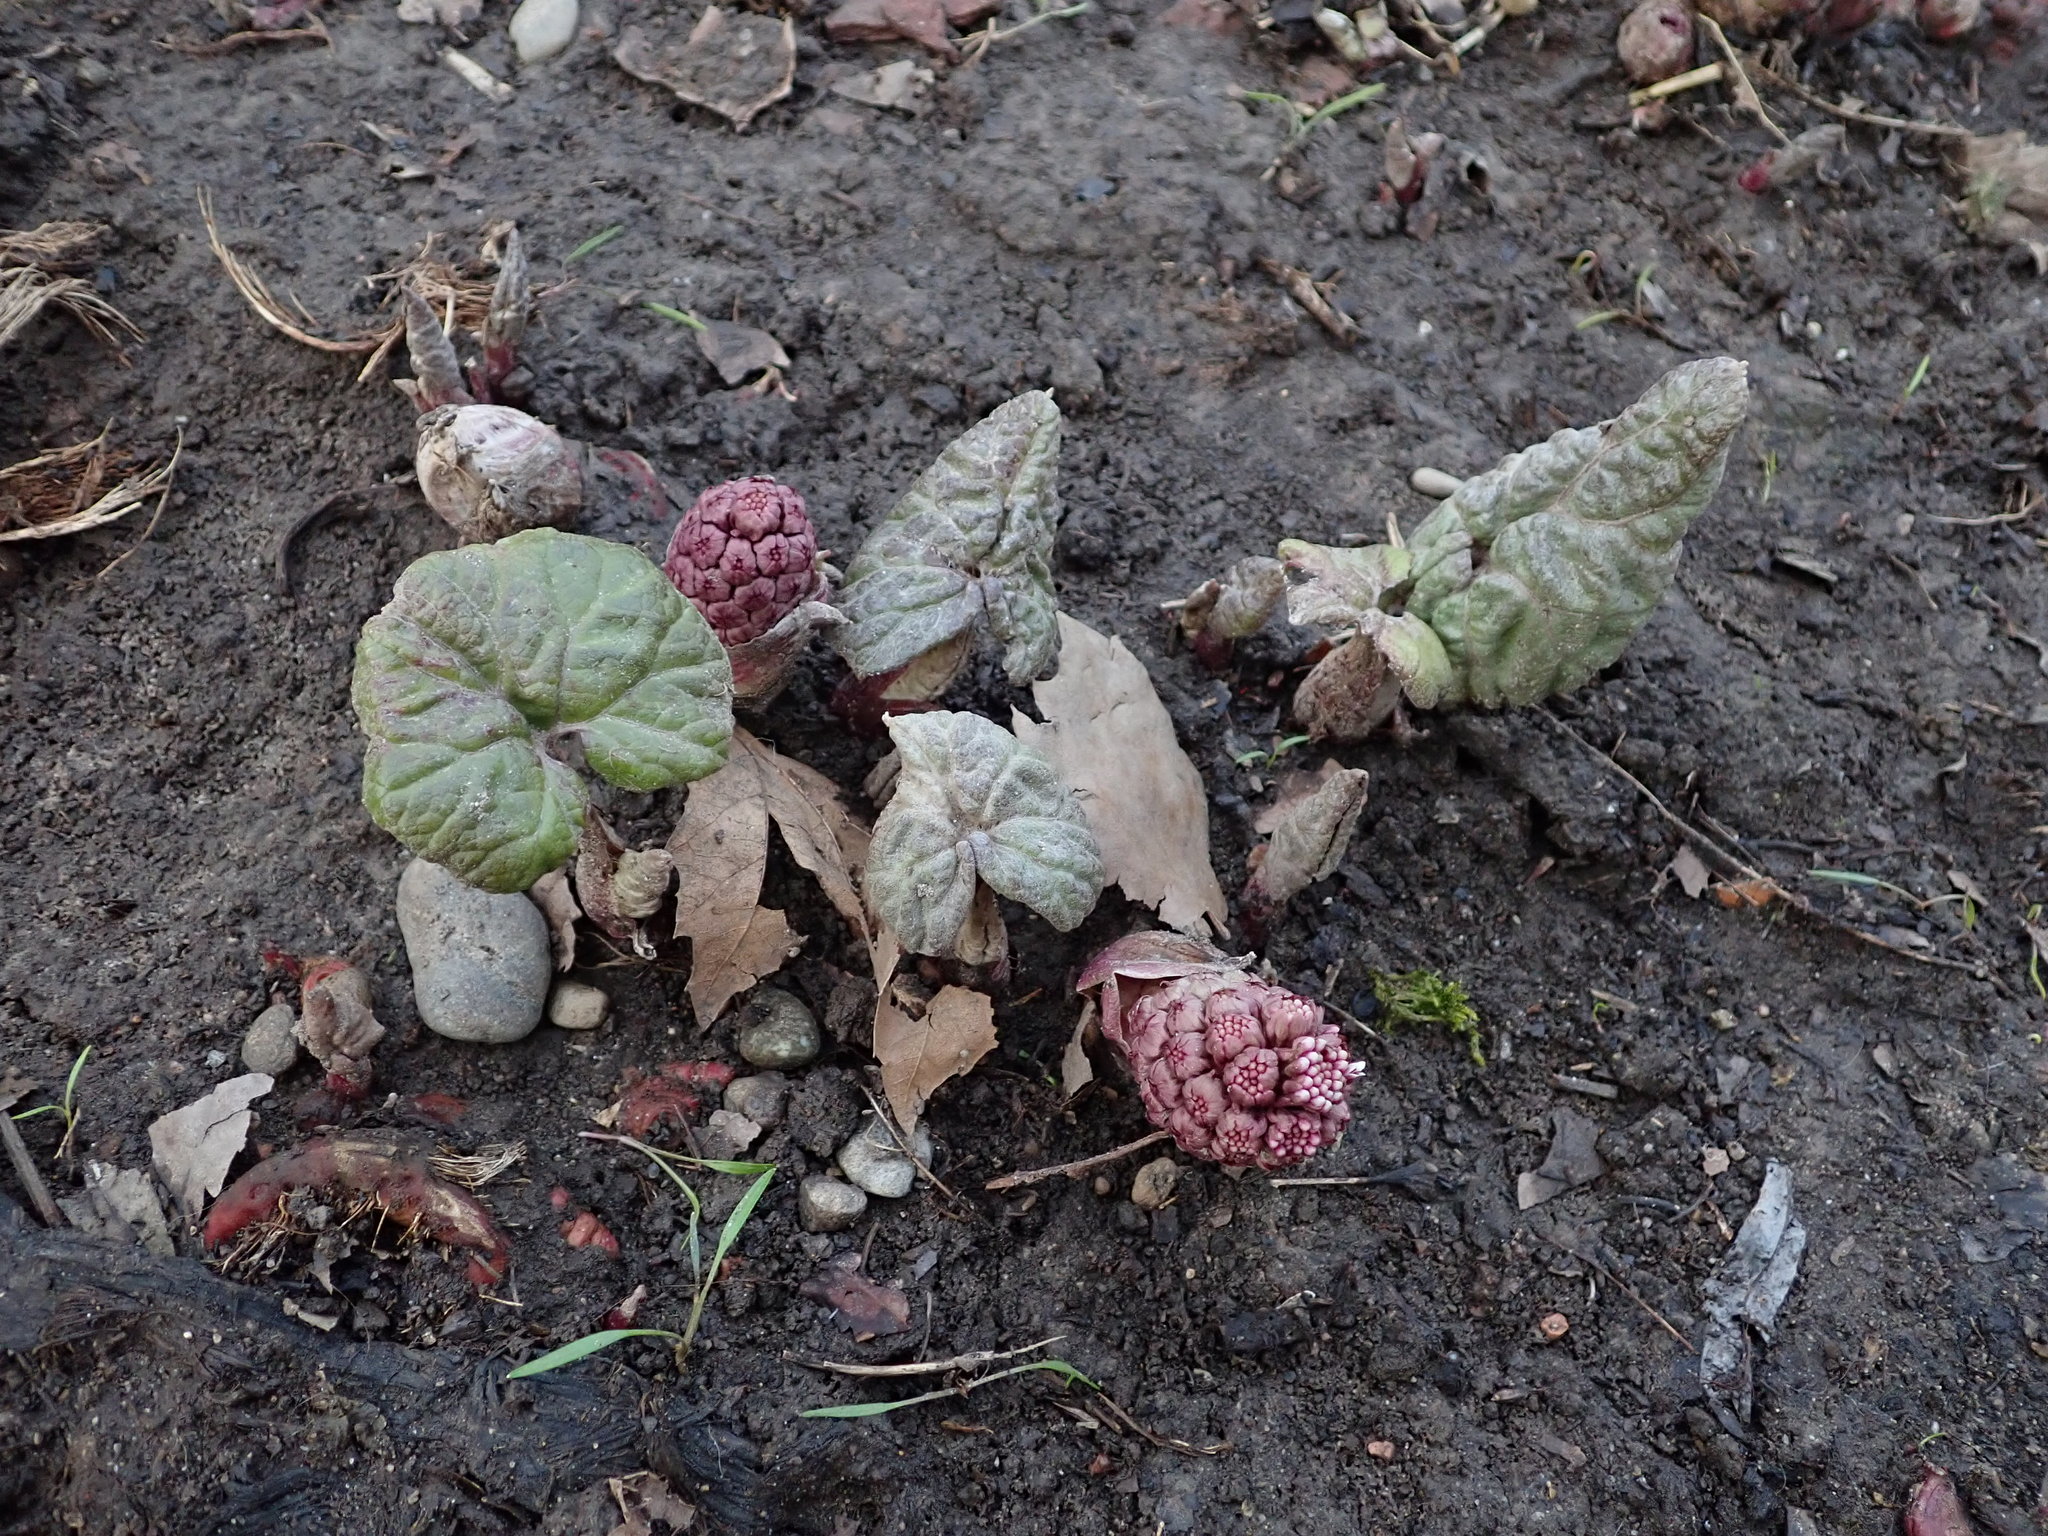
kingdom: Plantae
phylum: Tracheophyta
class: Magnoliopsida
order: Asterales
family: Asteraceae
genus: Petasites
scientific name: Petasites hybridus
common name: Butterbur
